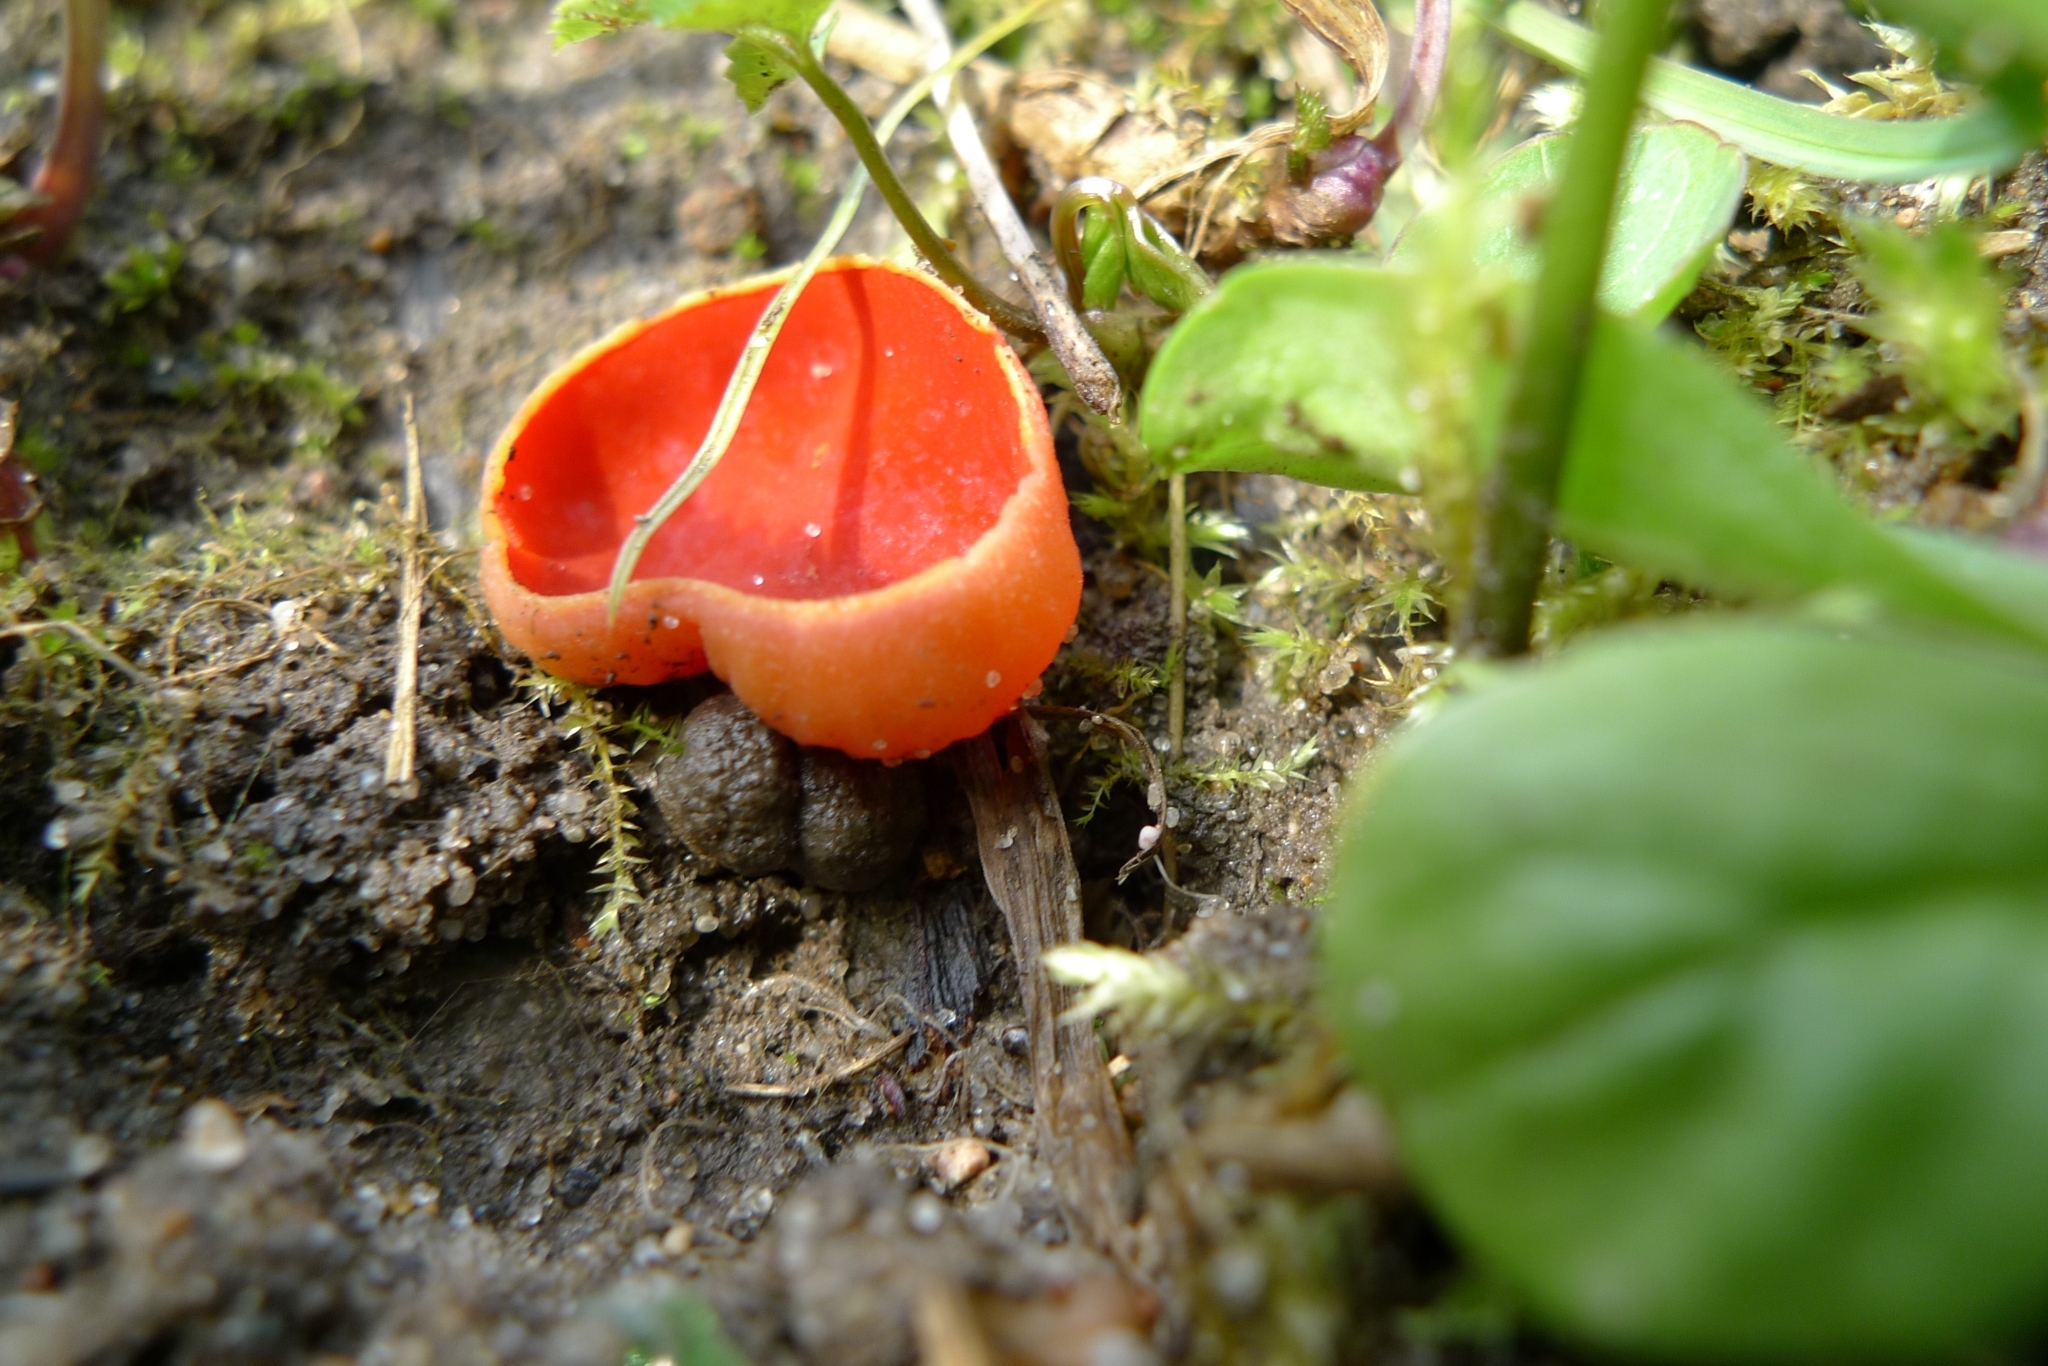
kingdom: Fungi
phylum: Ascomycota
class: Pezizomycetes
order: Pezizales
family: Sarcoscyphaceae
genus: Sarcoscypha
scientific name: Sarcoscypha
